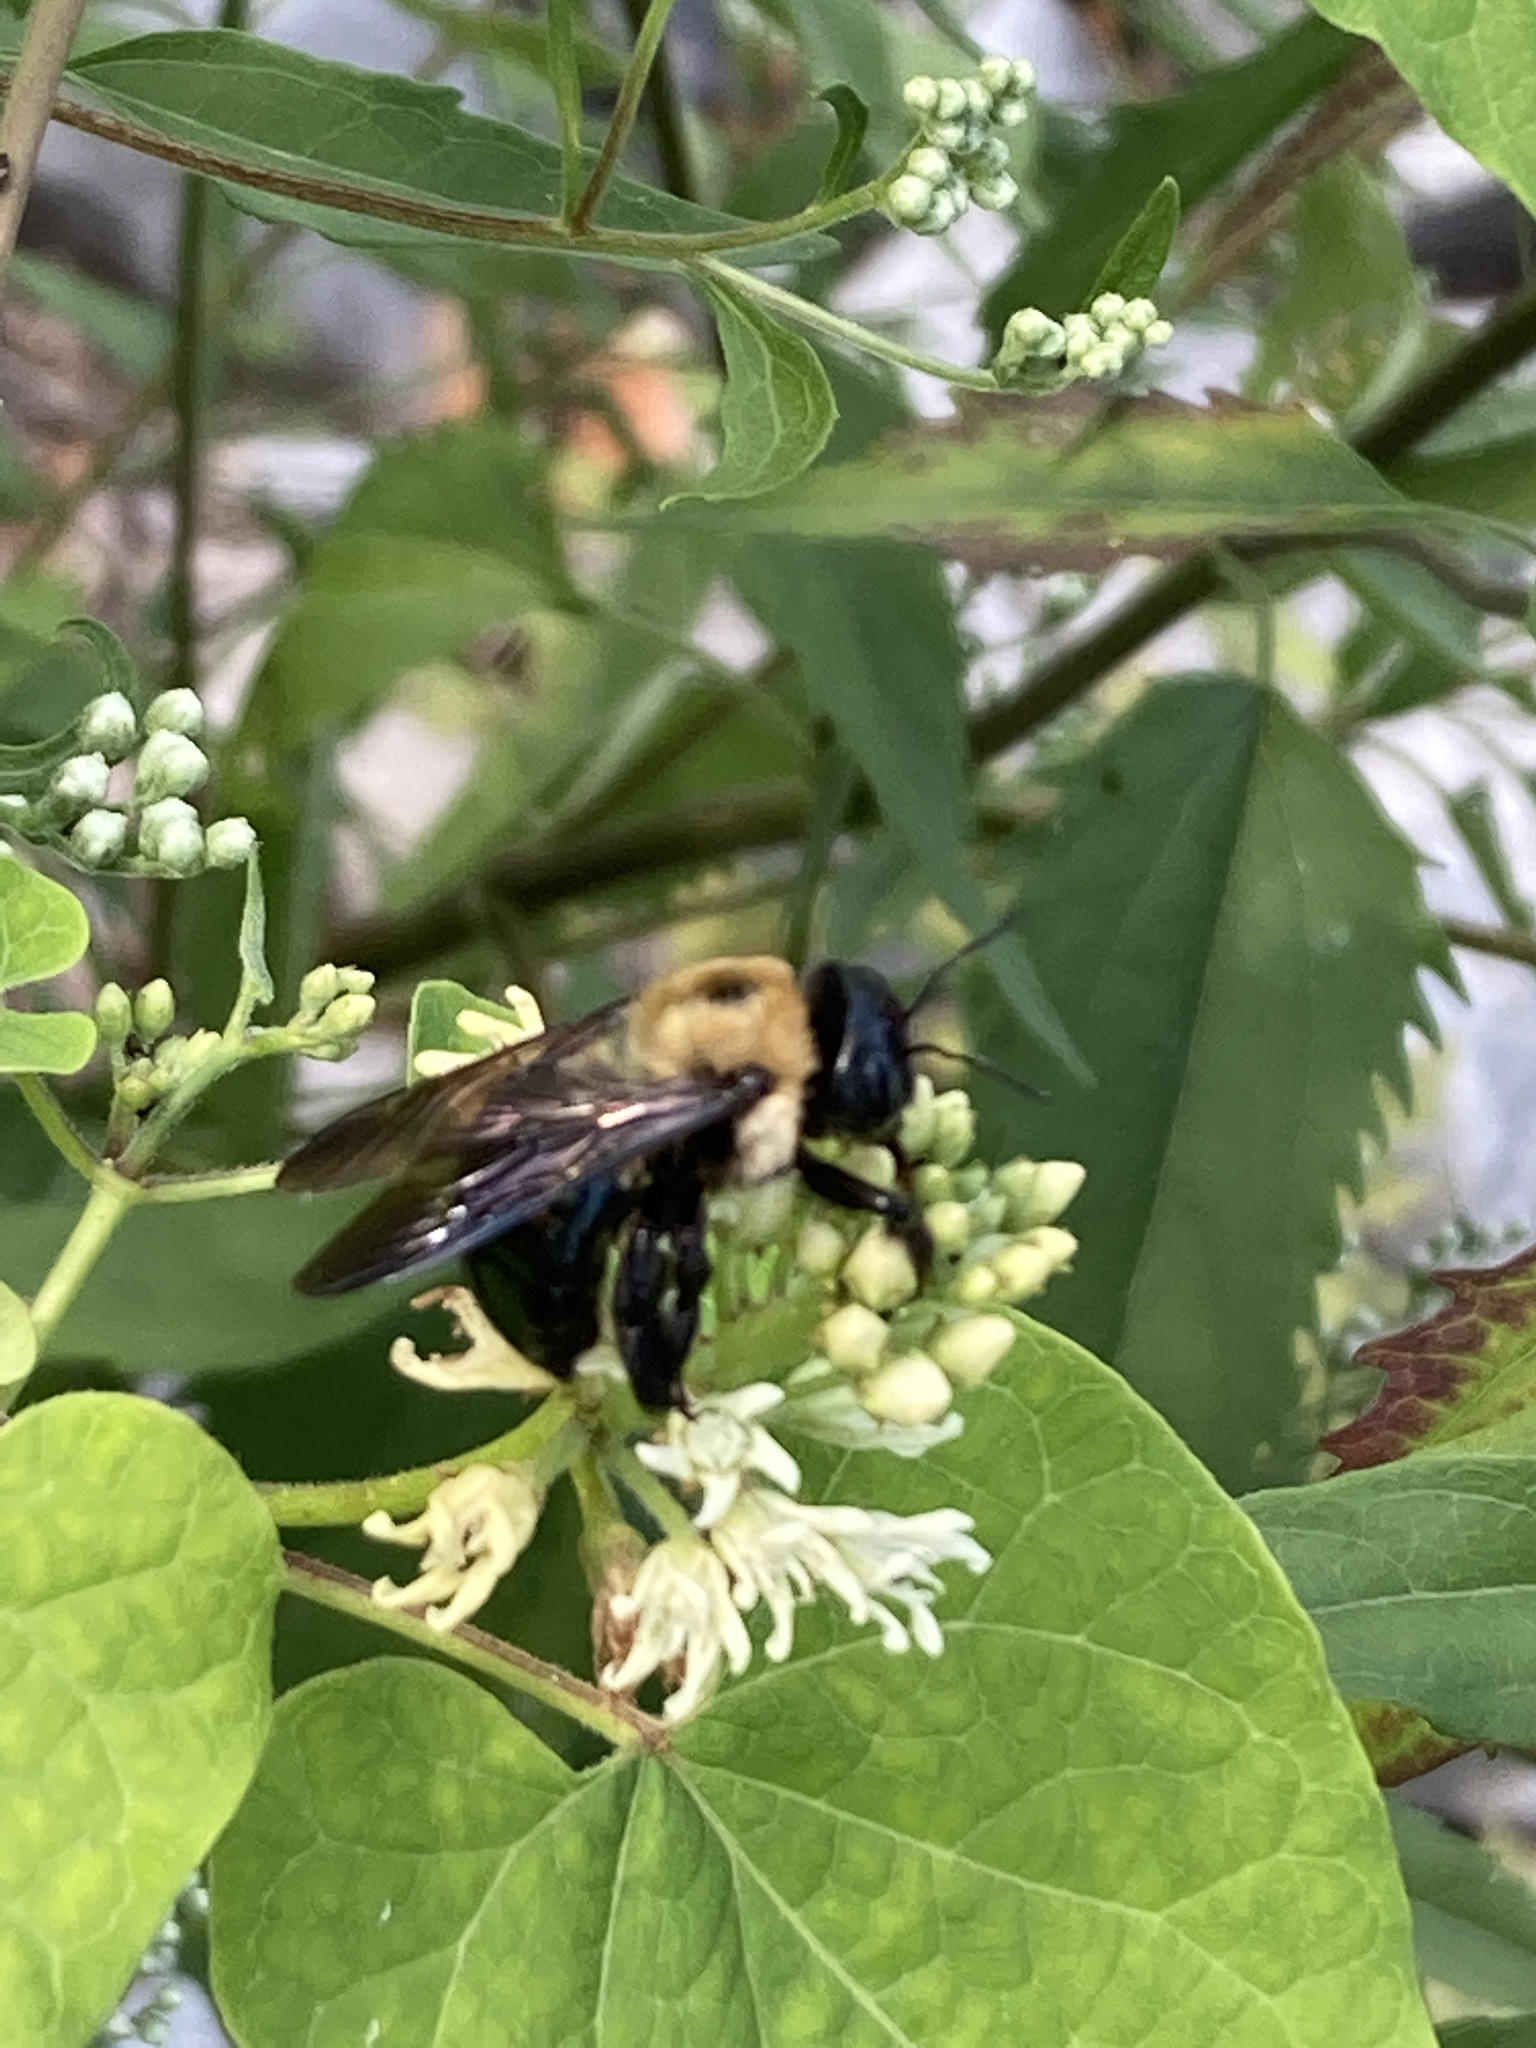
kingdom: Animalia
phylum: Arthropoda
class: Insecta
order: Hymenoptera
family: Apidae
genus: Xylocopa
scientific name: Xylocopa virginica
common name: Carpenter bee
